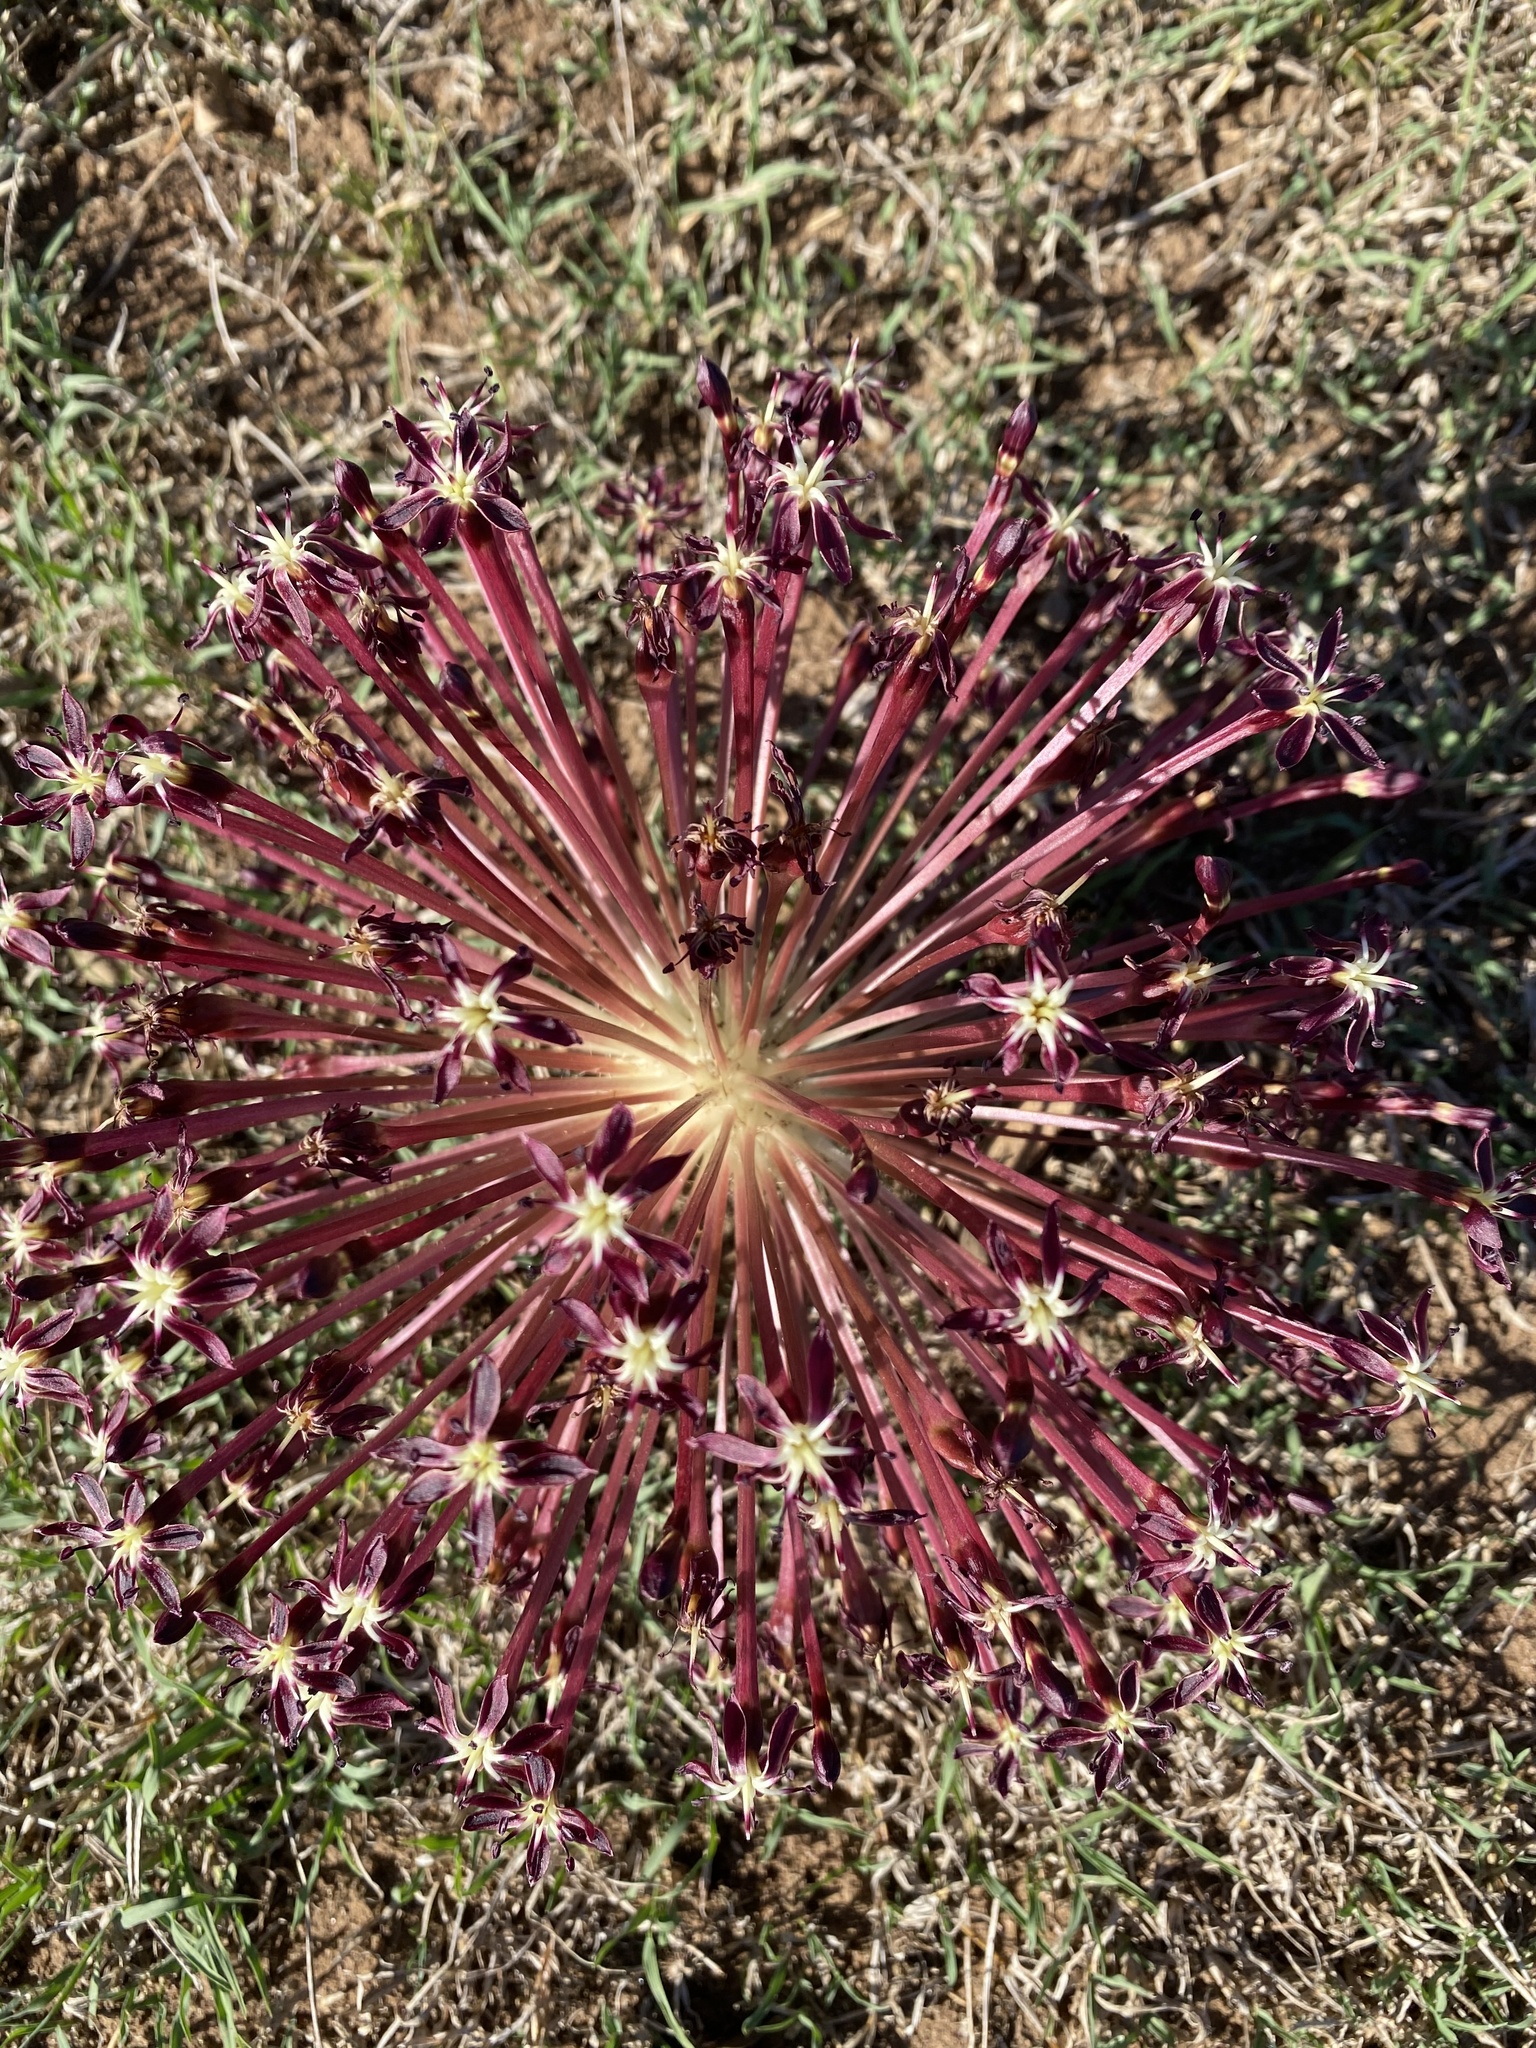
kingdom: Plantae
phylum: Tracheophyta
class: Liliopsida
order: Asparagales
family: Amaryllidaceae
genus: Crossyne
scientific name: Crossyne guttata
